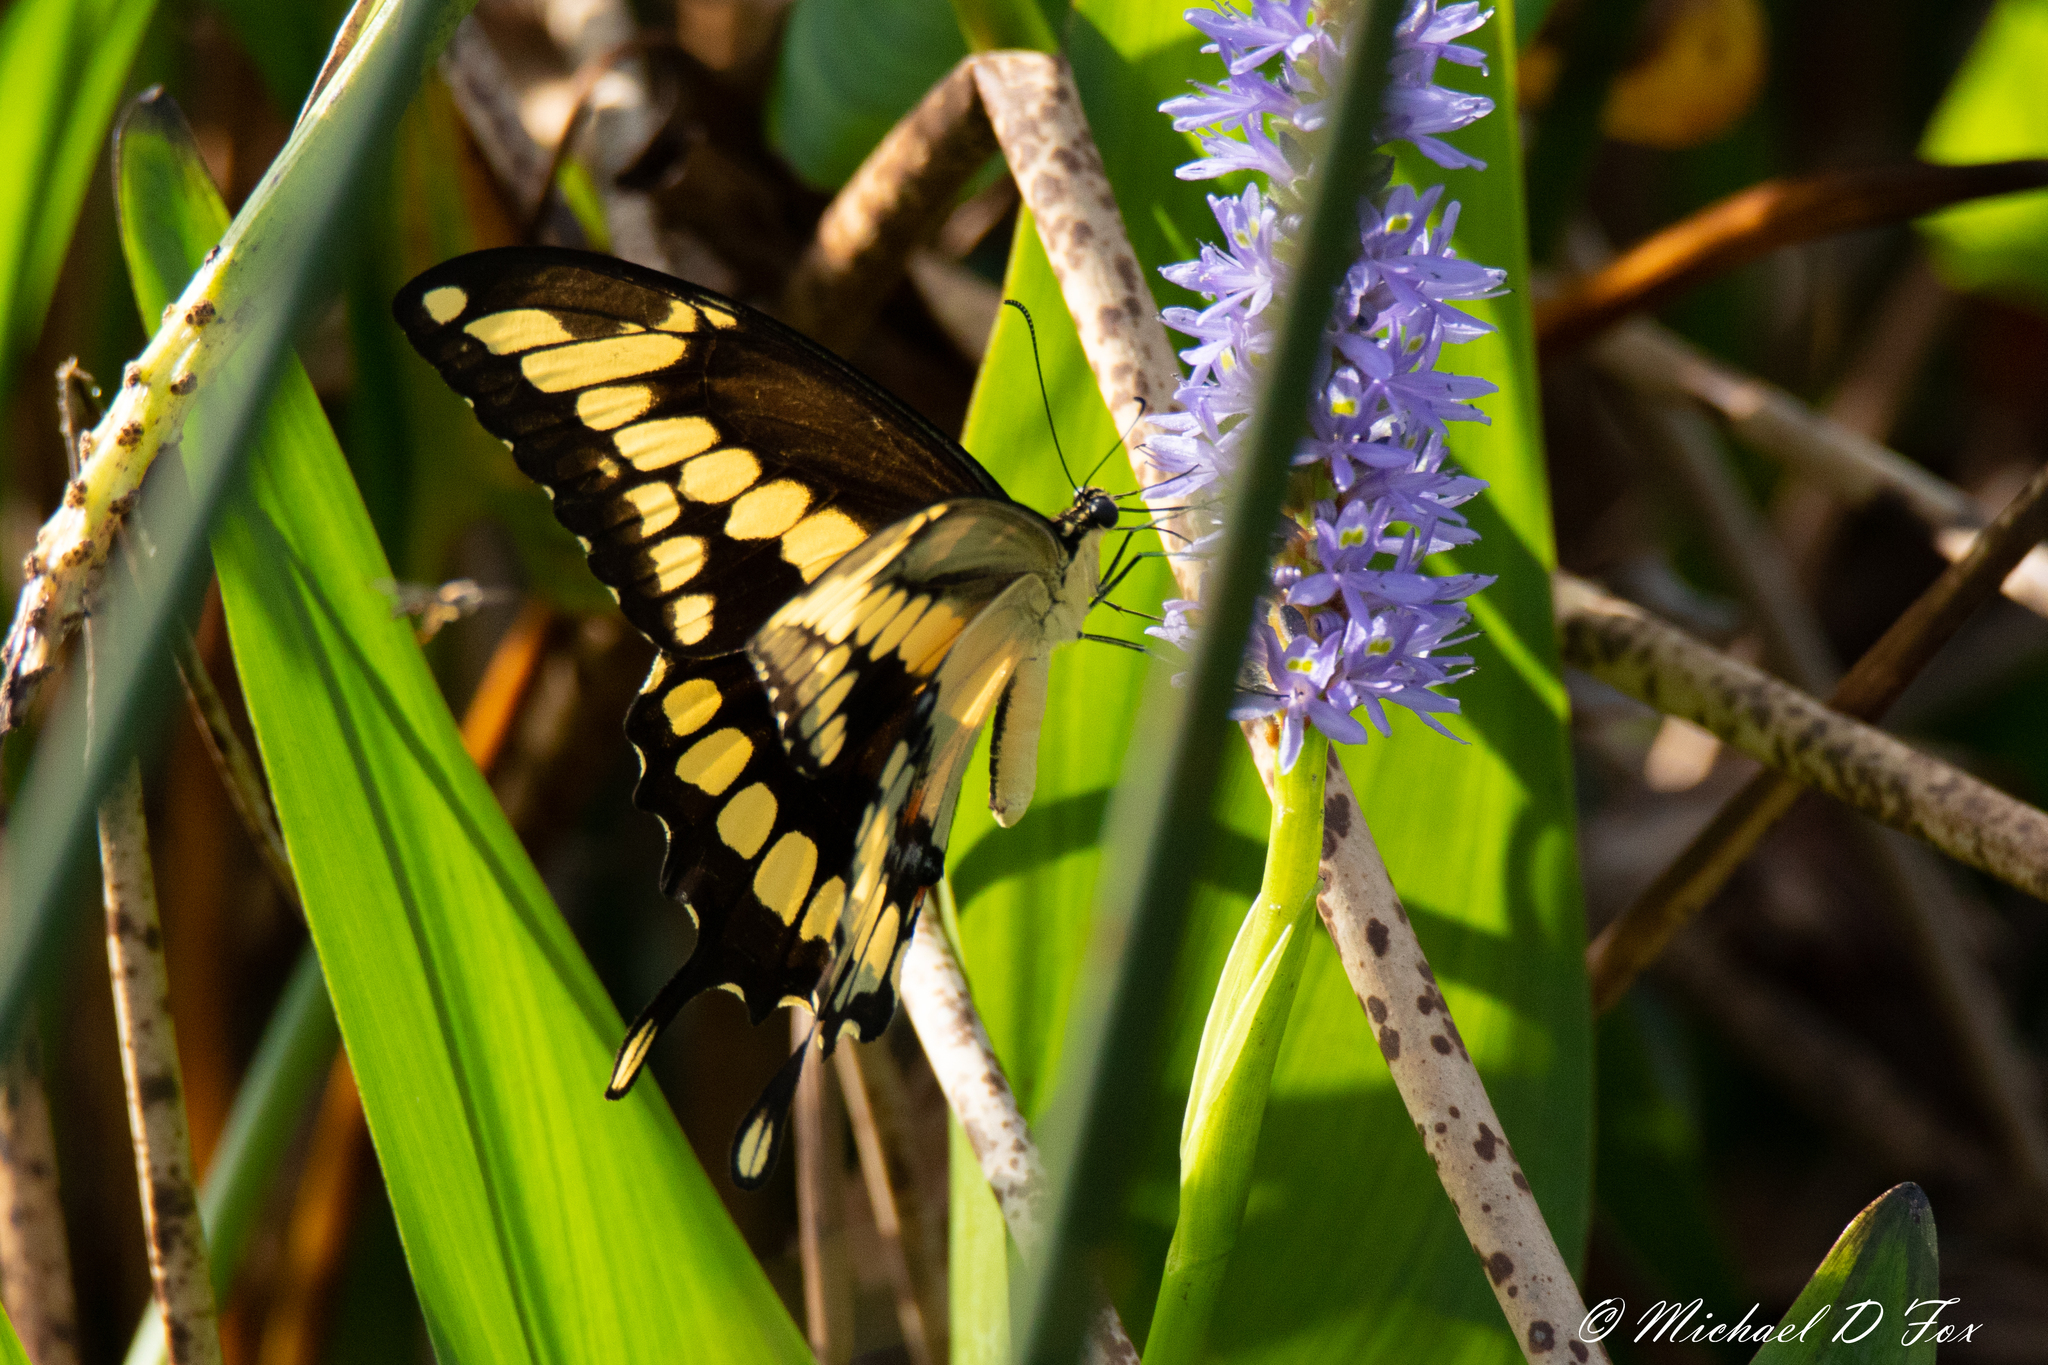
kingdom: Animalia
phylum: Arthropoda
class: Insecta
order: Lepidoptera
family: Papilionidae
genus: Papilio
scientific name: Papilio cresphontes
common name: Giant swallowtail
